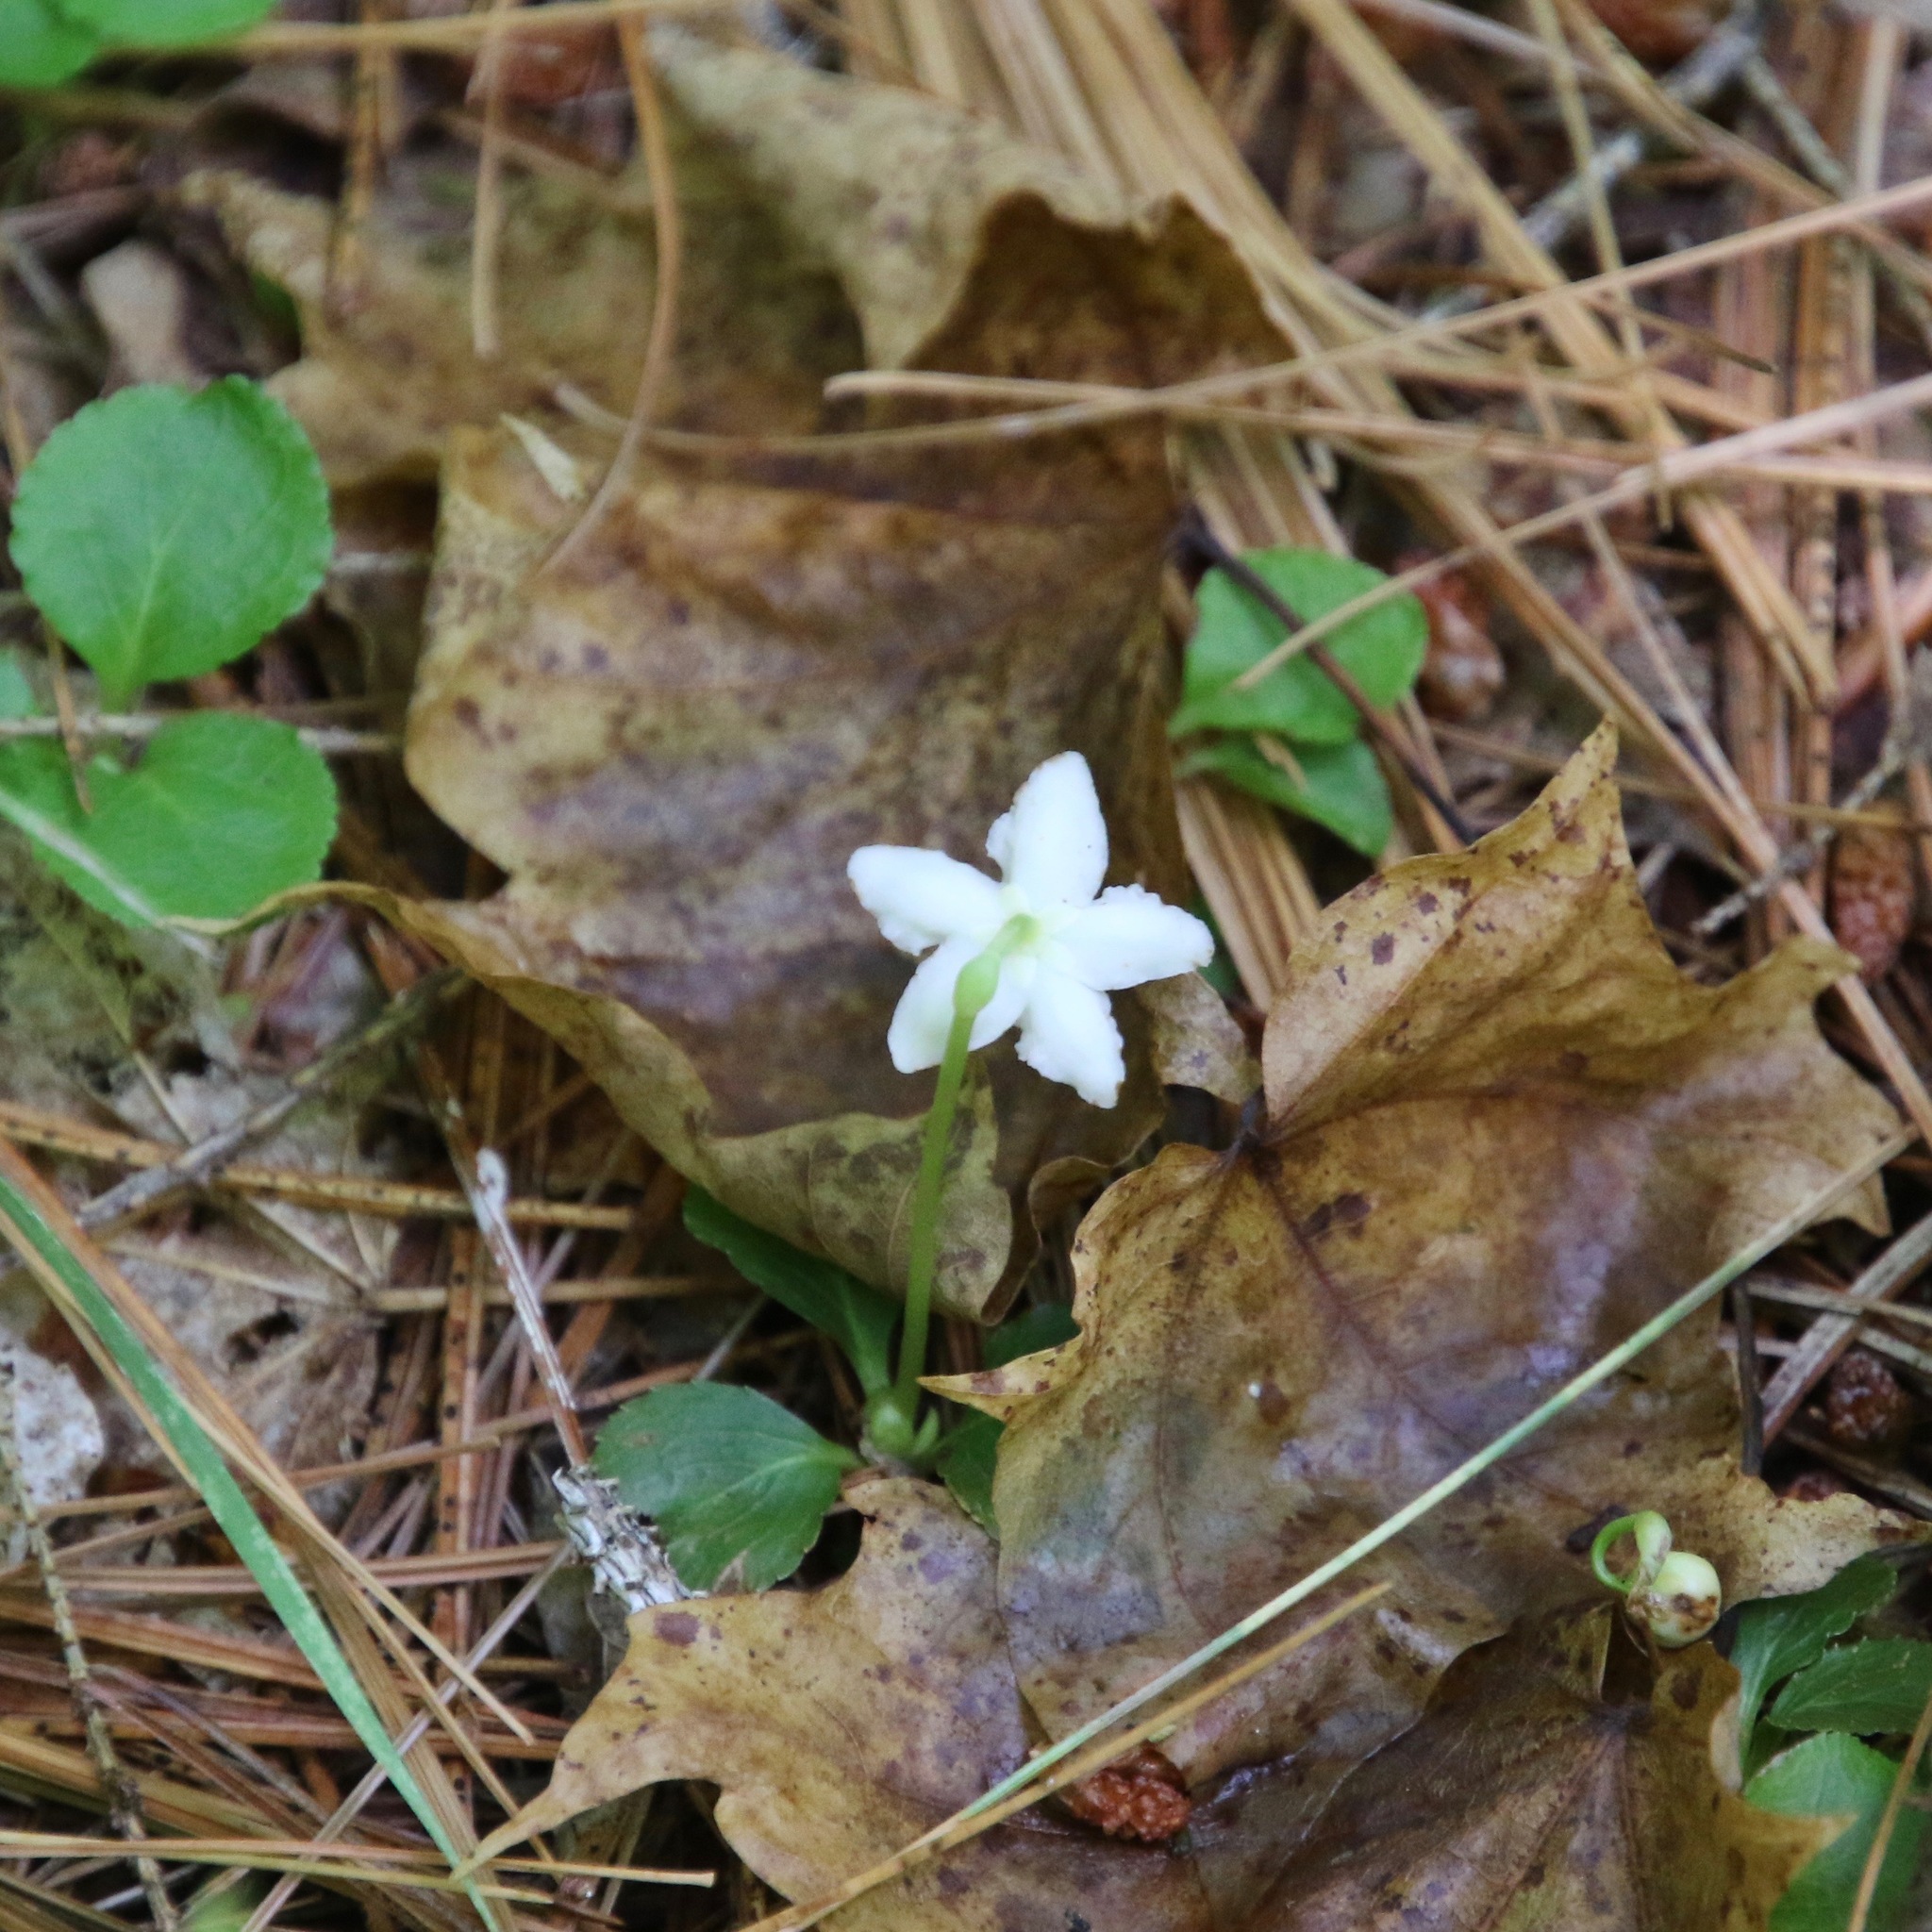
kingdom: Plantae
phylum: Tracheophyta
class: Magnoliopsida
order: Ericales
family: Ericaceae
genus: Moneses
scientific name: Moneses uniflora
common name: One-flowered wintergreen
